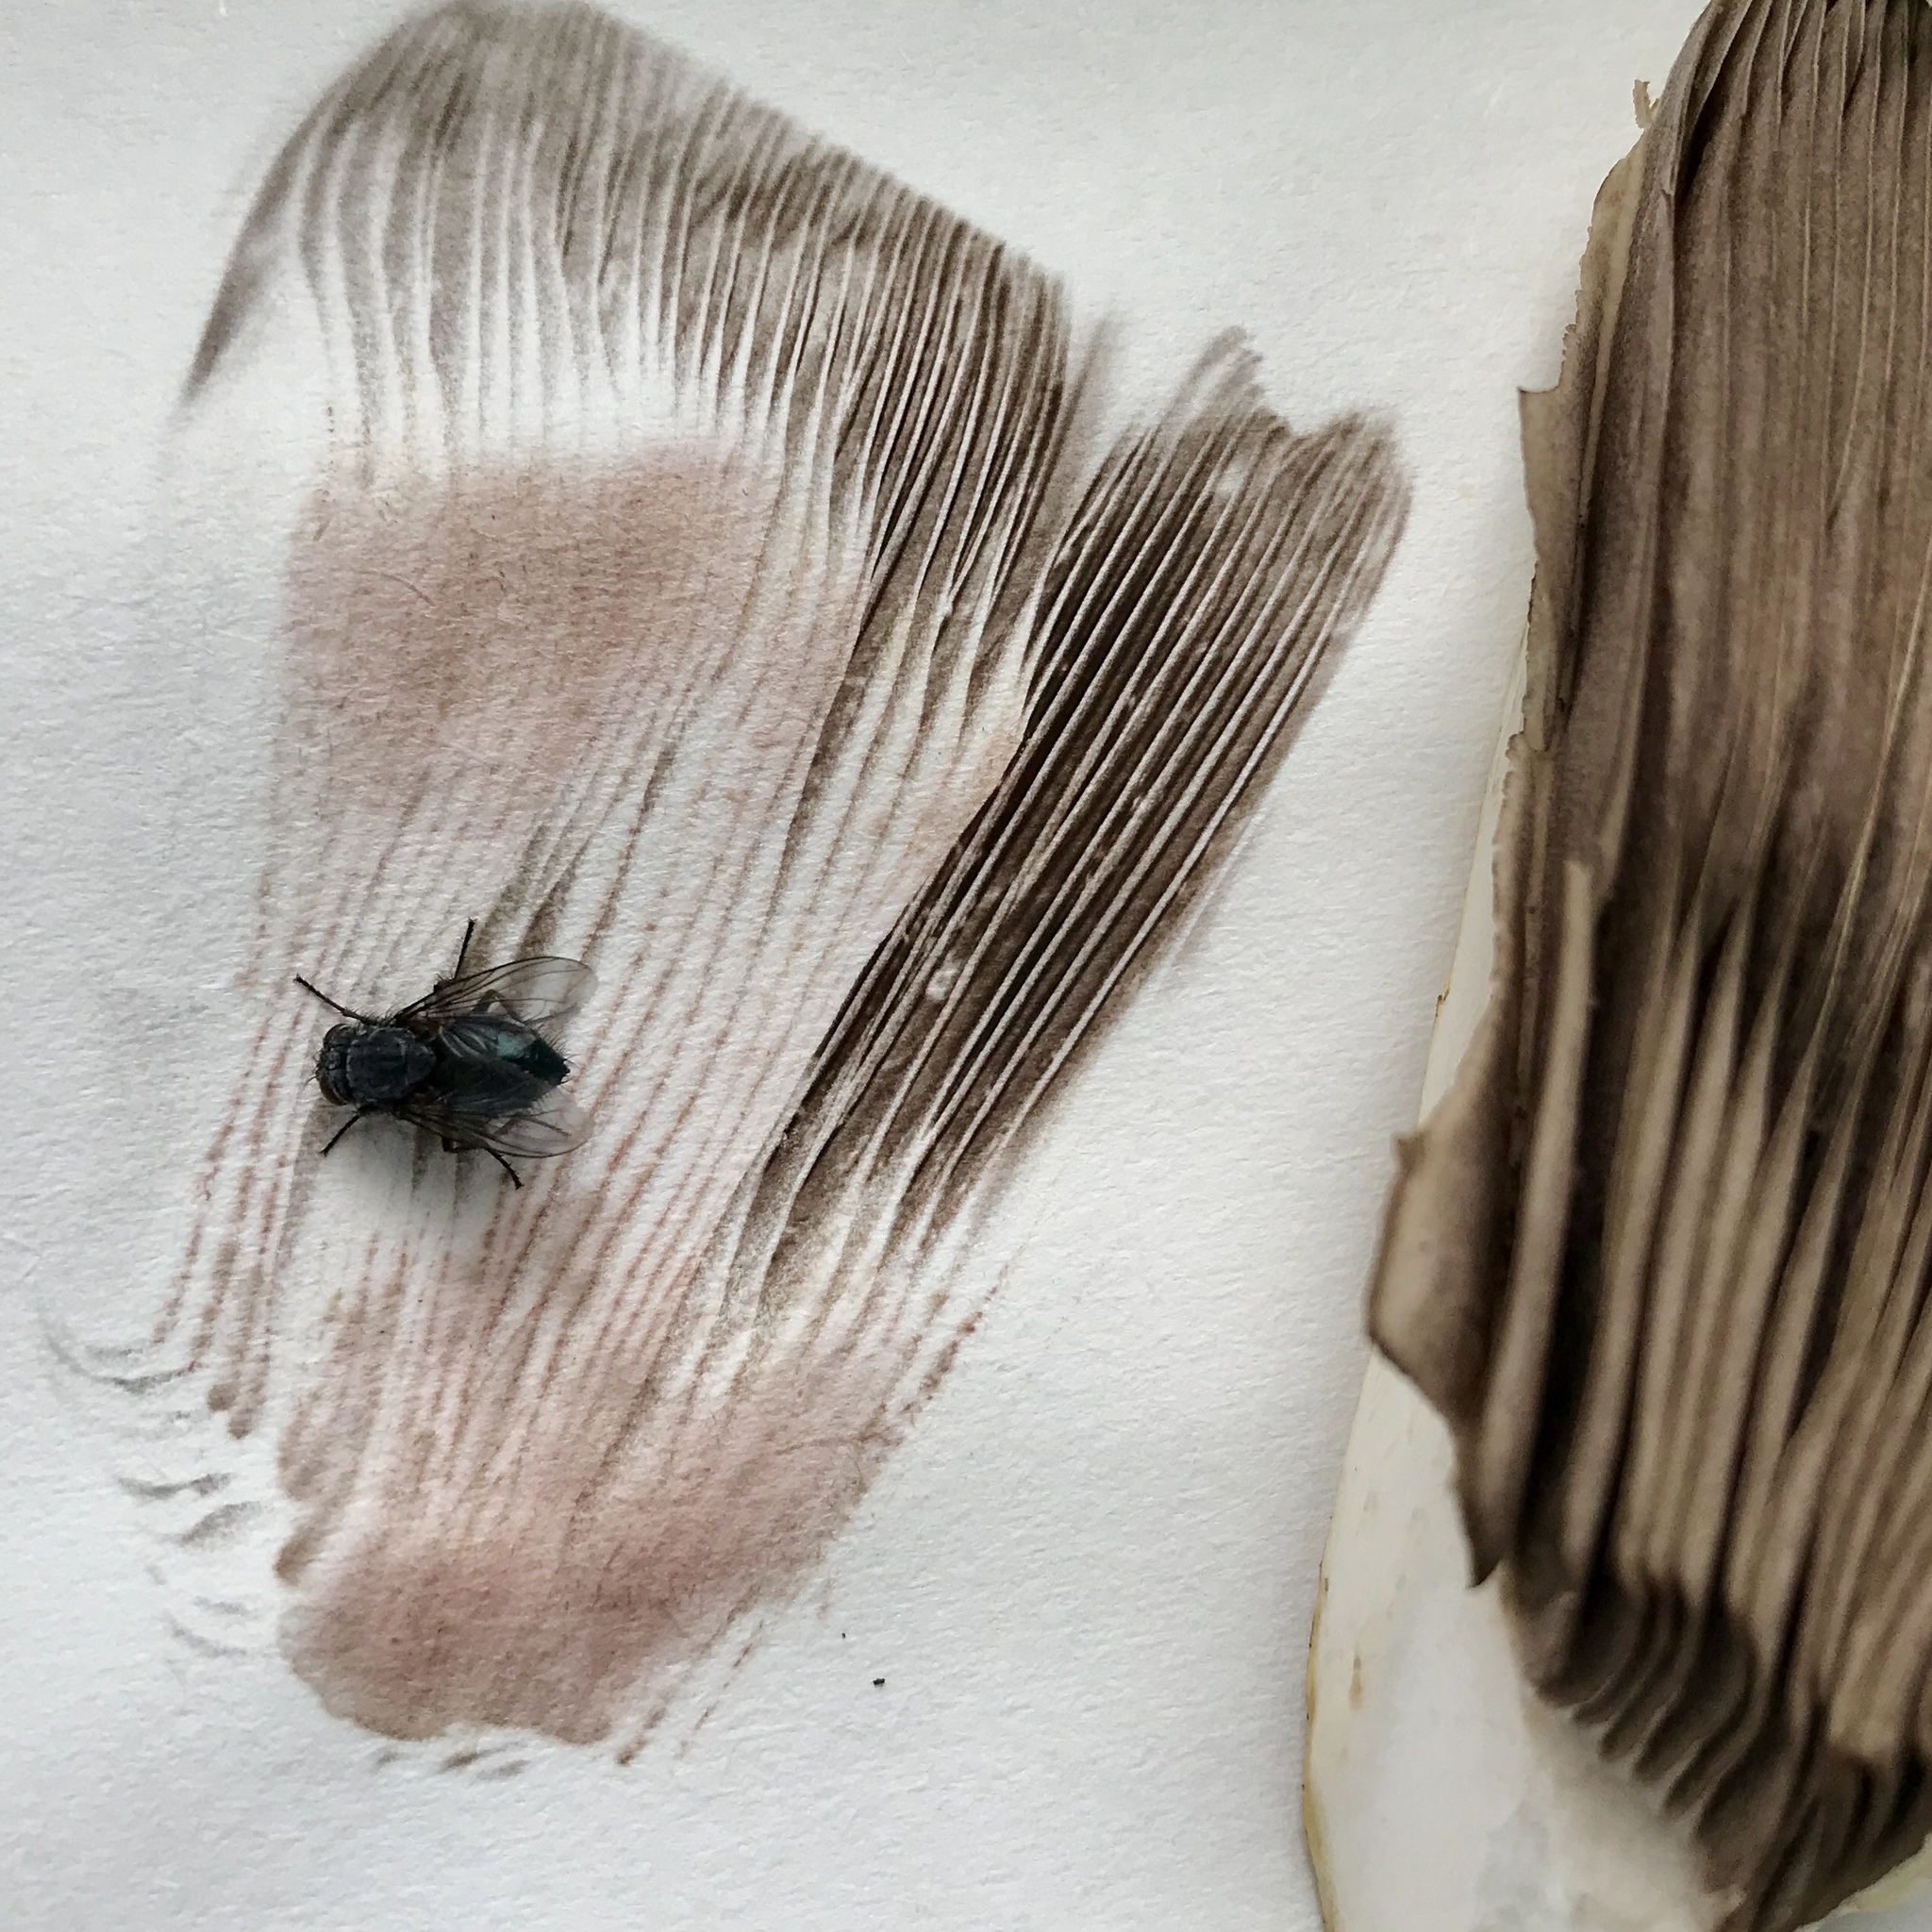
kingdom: Fungi
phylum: Basidiomycota
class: Agaricomycetes
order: Agaricales
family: Agaricaceae
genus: Agaricus
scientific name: Agaricus augustus
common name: Prince
